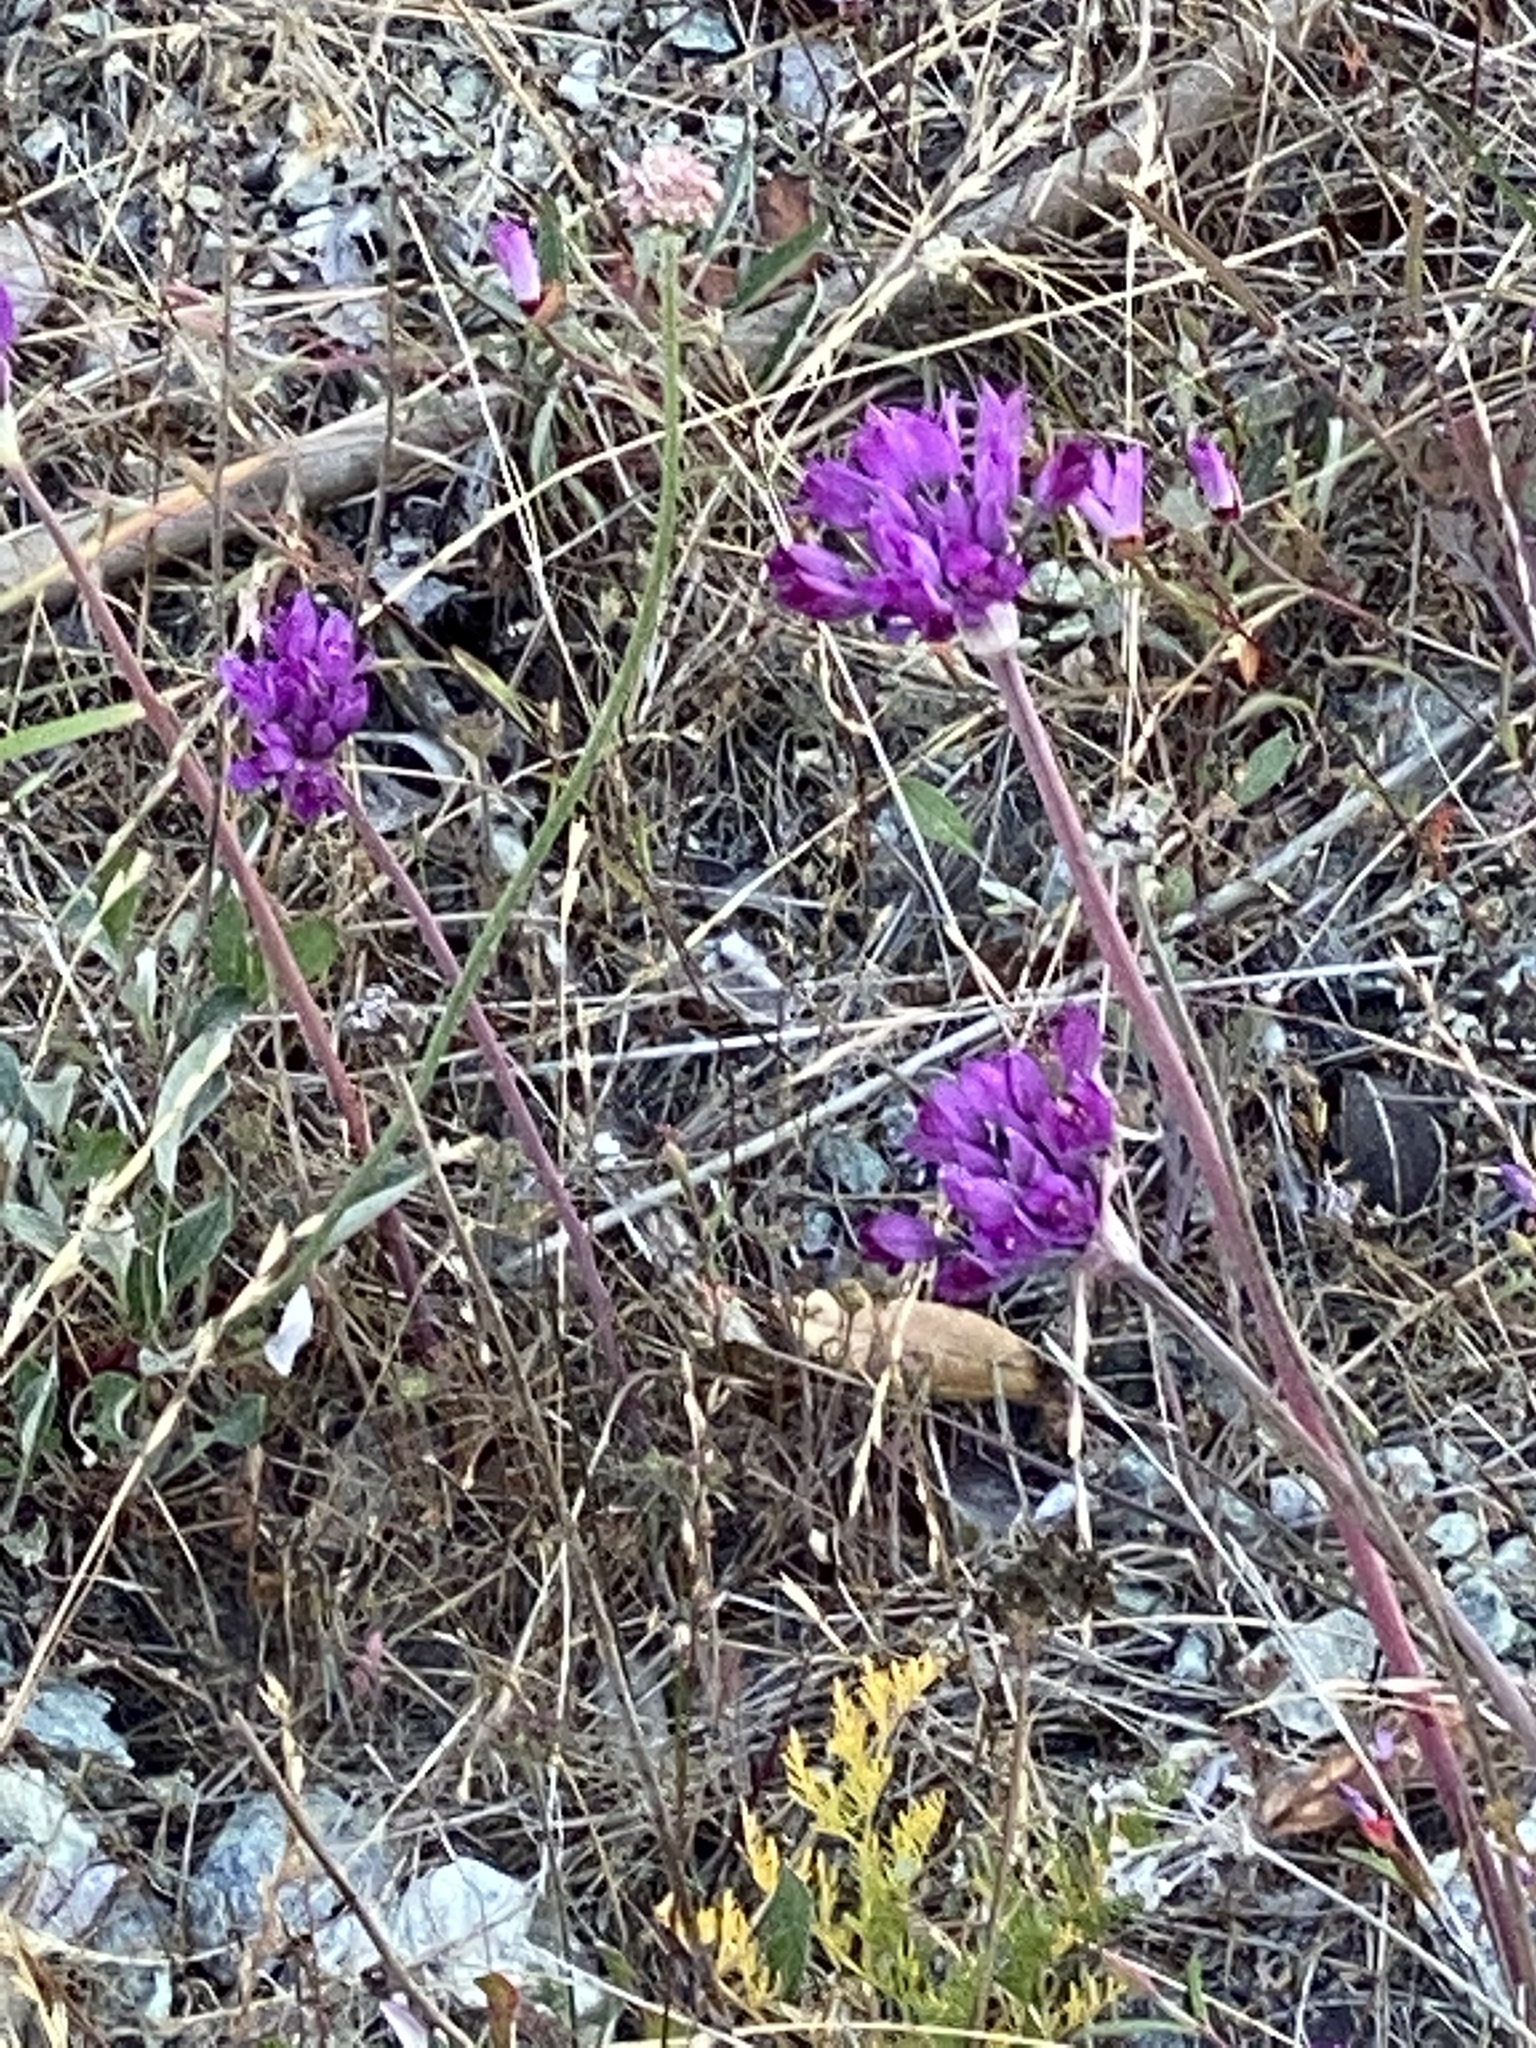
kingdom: Plantae
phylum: Tracheophyta
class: Liliopsida
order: Asparagales
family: Amaryllidaceae
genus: Allium
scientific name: Allium dichlamydeum
